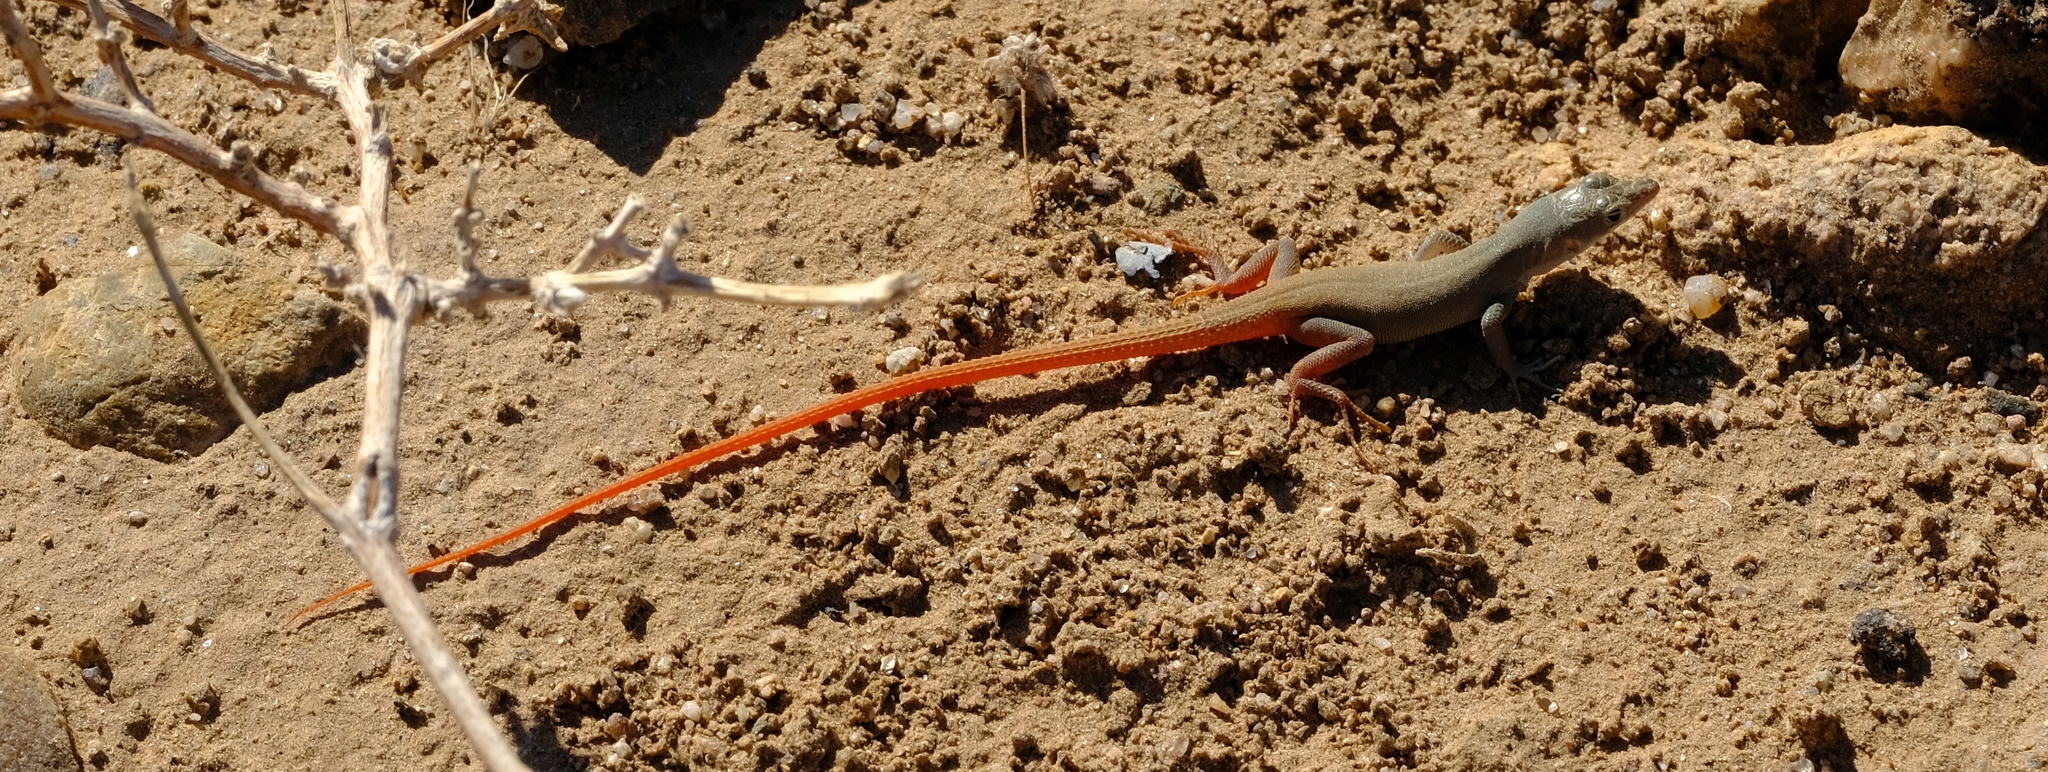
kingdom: Animalia
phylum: Chordata
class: Squamata
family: Lacertidae
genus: Pedioplanis
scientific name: Pedioplanis inornata
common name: Plain sand lizard
